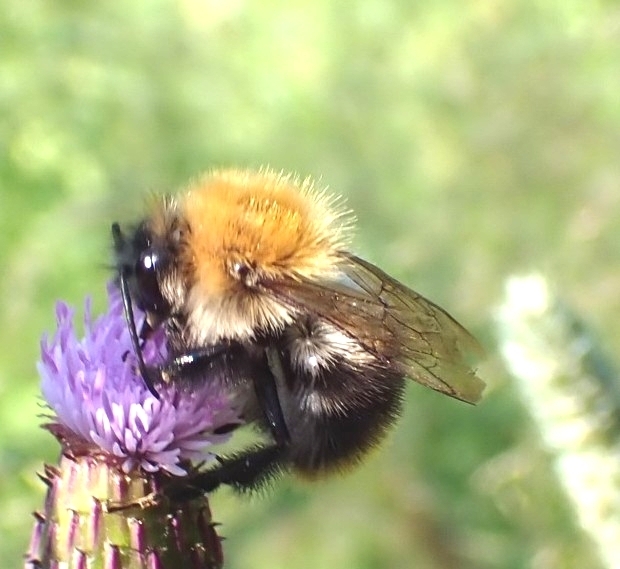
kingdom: Animalia
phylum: Arthropoda
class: Insecta
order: Hymenoptera
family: Apidae
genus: Bombus
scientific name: Bombus pascuorum
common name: Common carder bee
